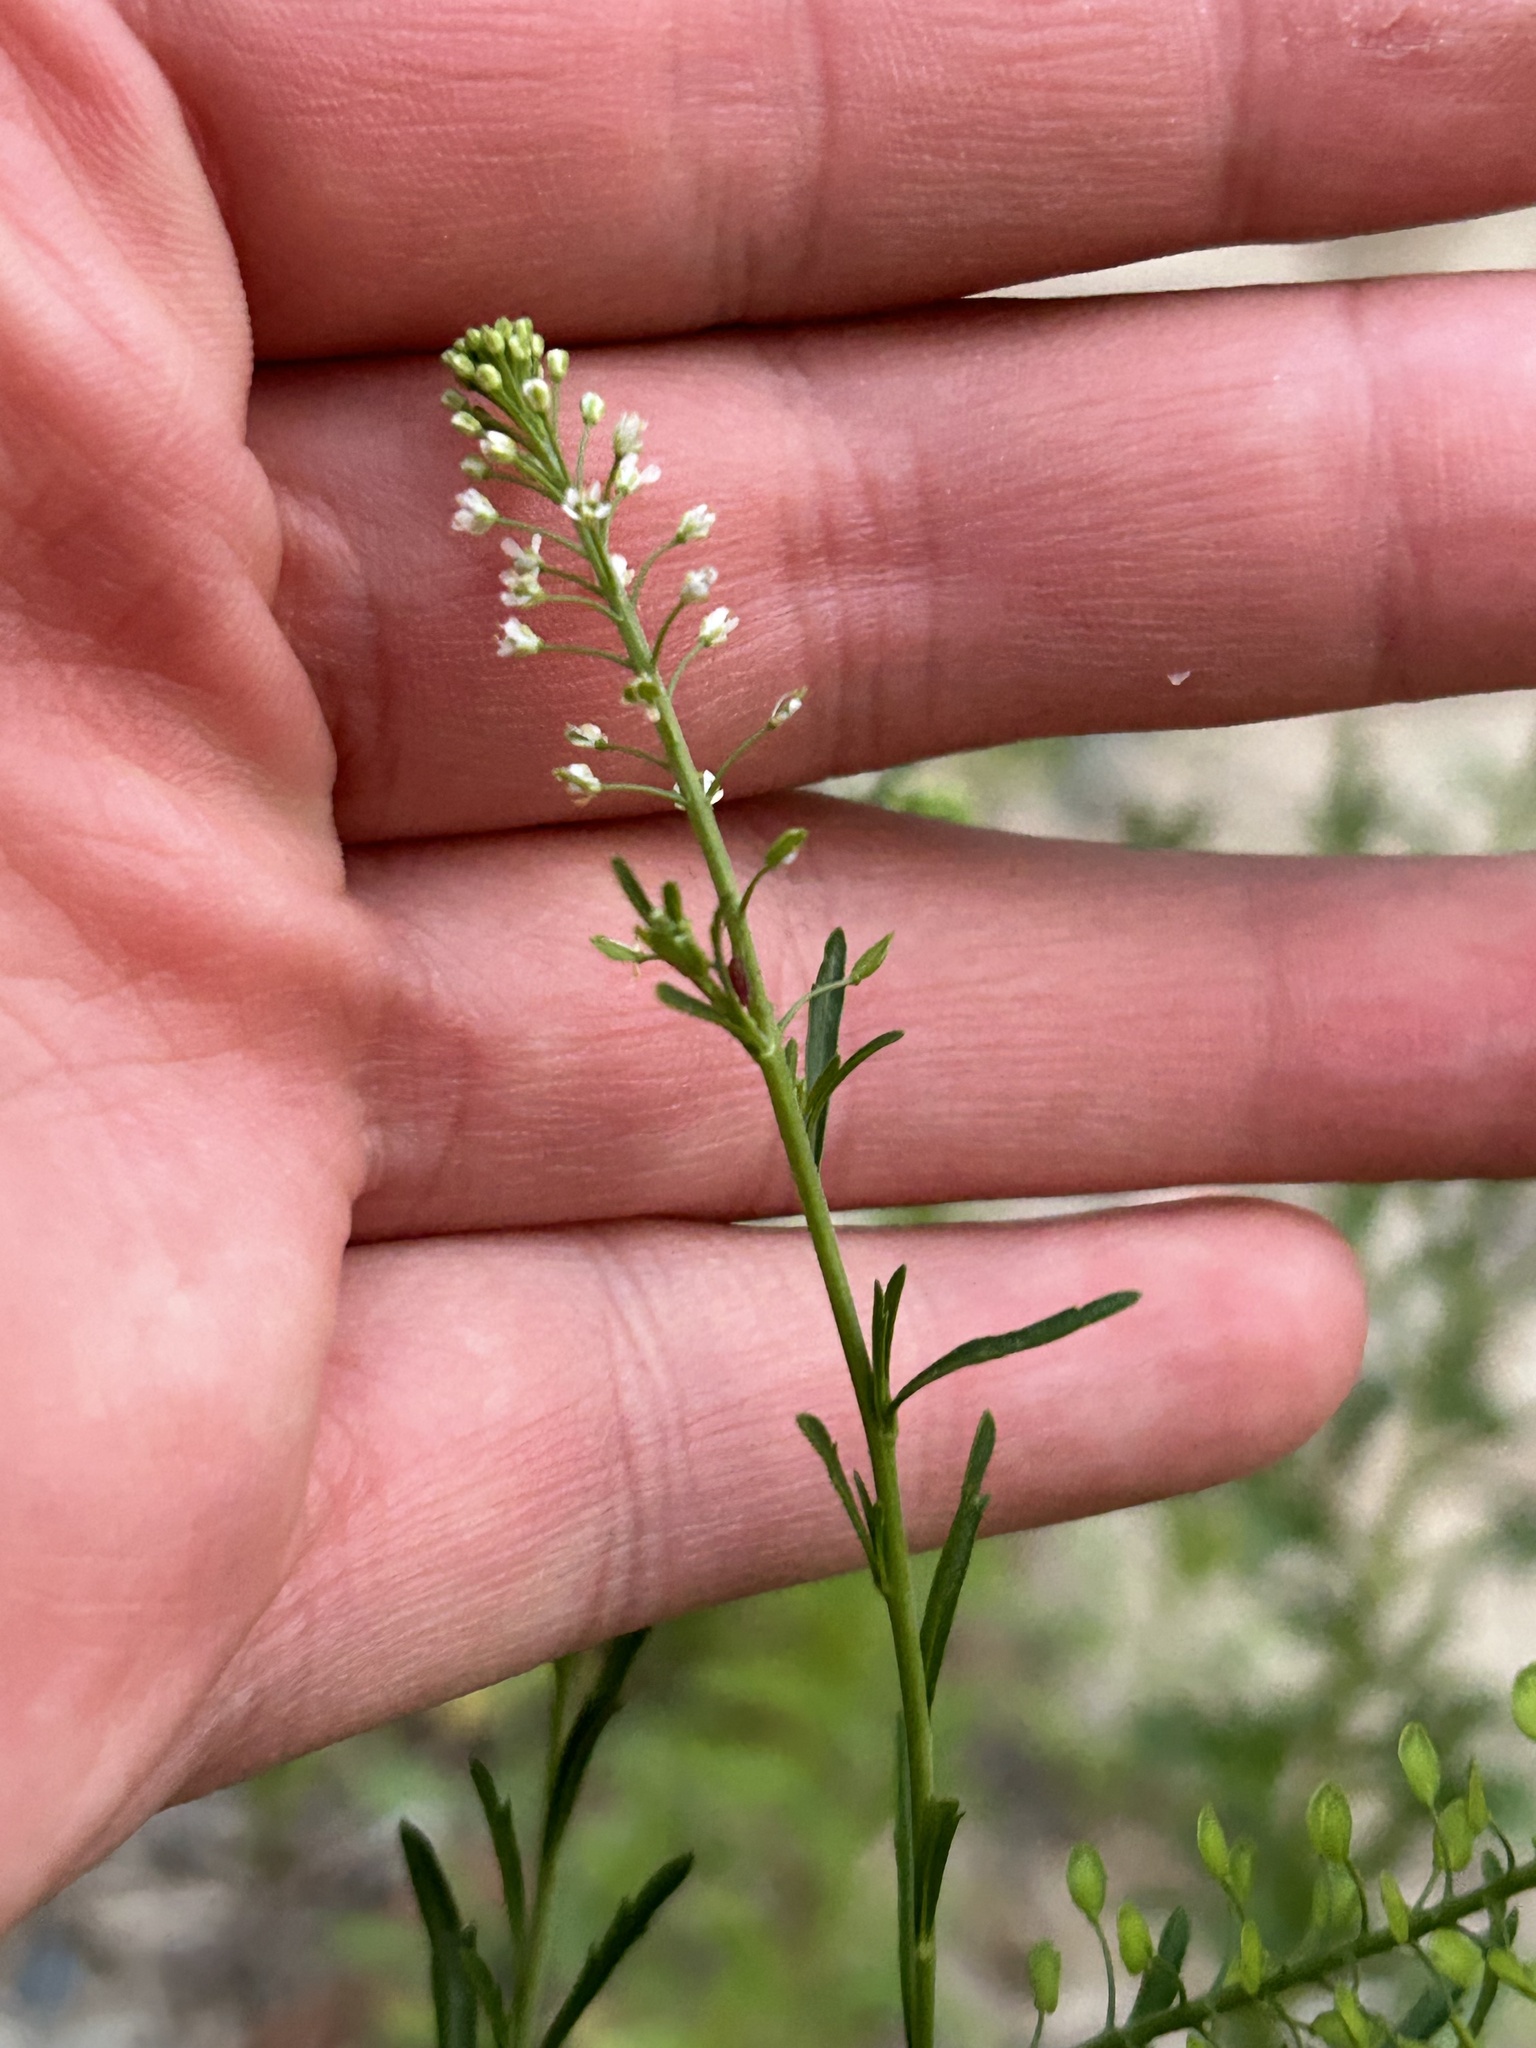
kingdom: Plantae
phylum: Tracheophyta
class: Magnoliopsida
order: Brassicales
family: Brassicaceae
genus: Lepidium
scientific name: Lepidium virginicum
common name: Least pepperwort
